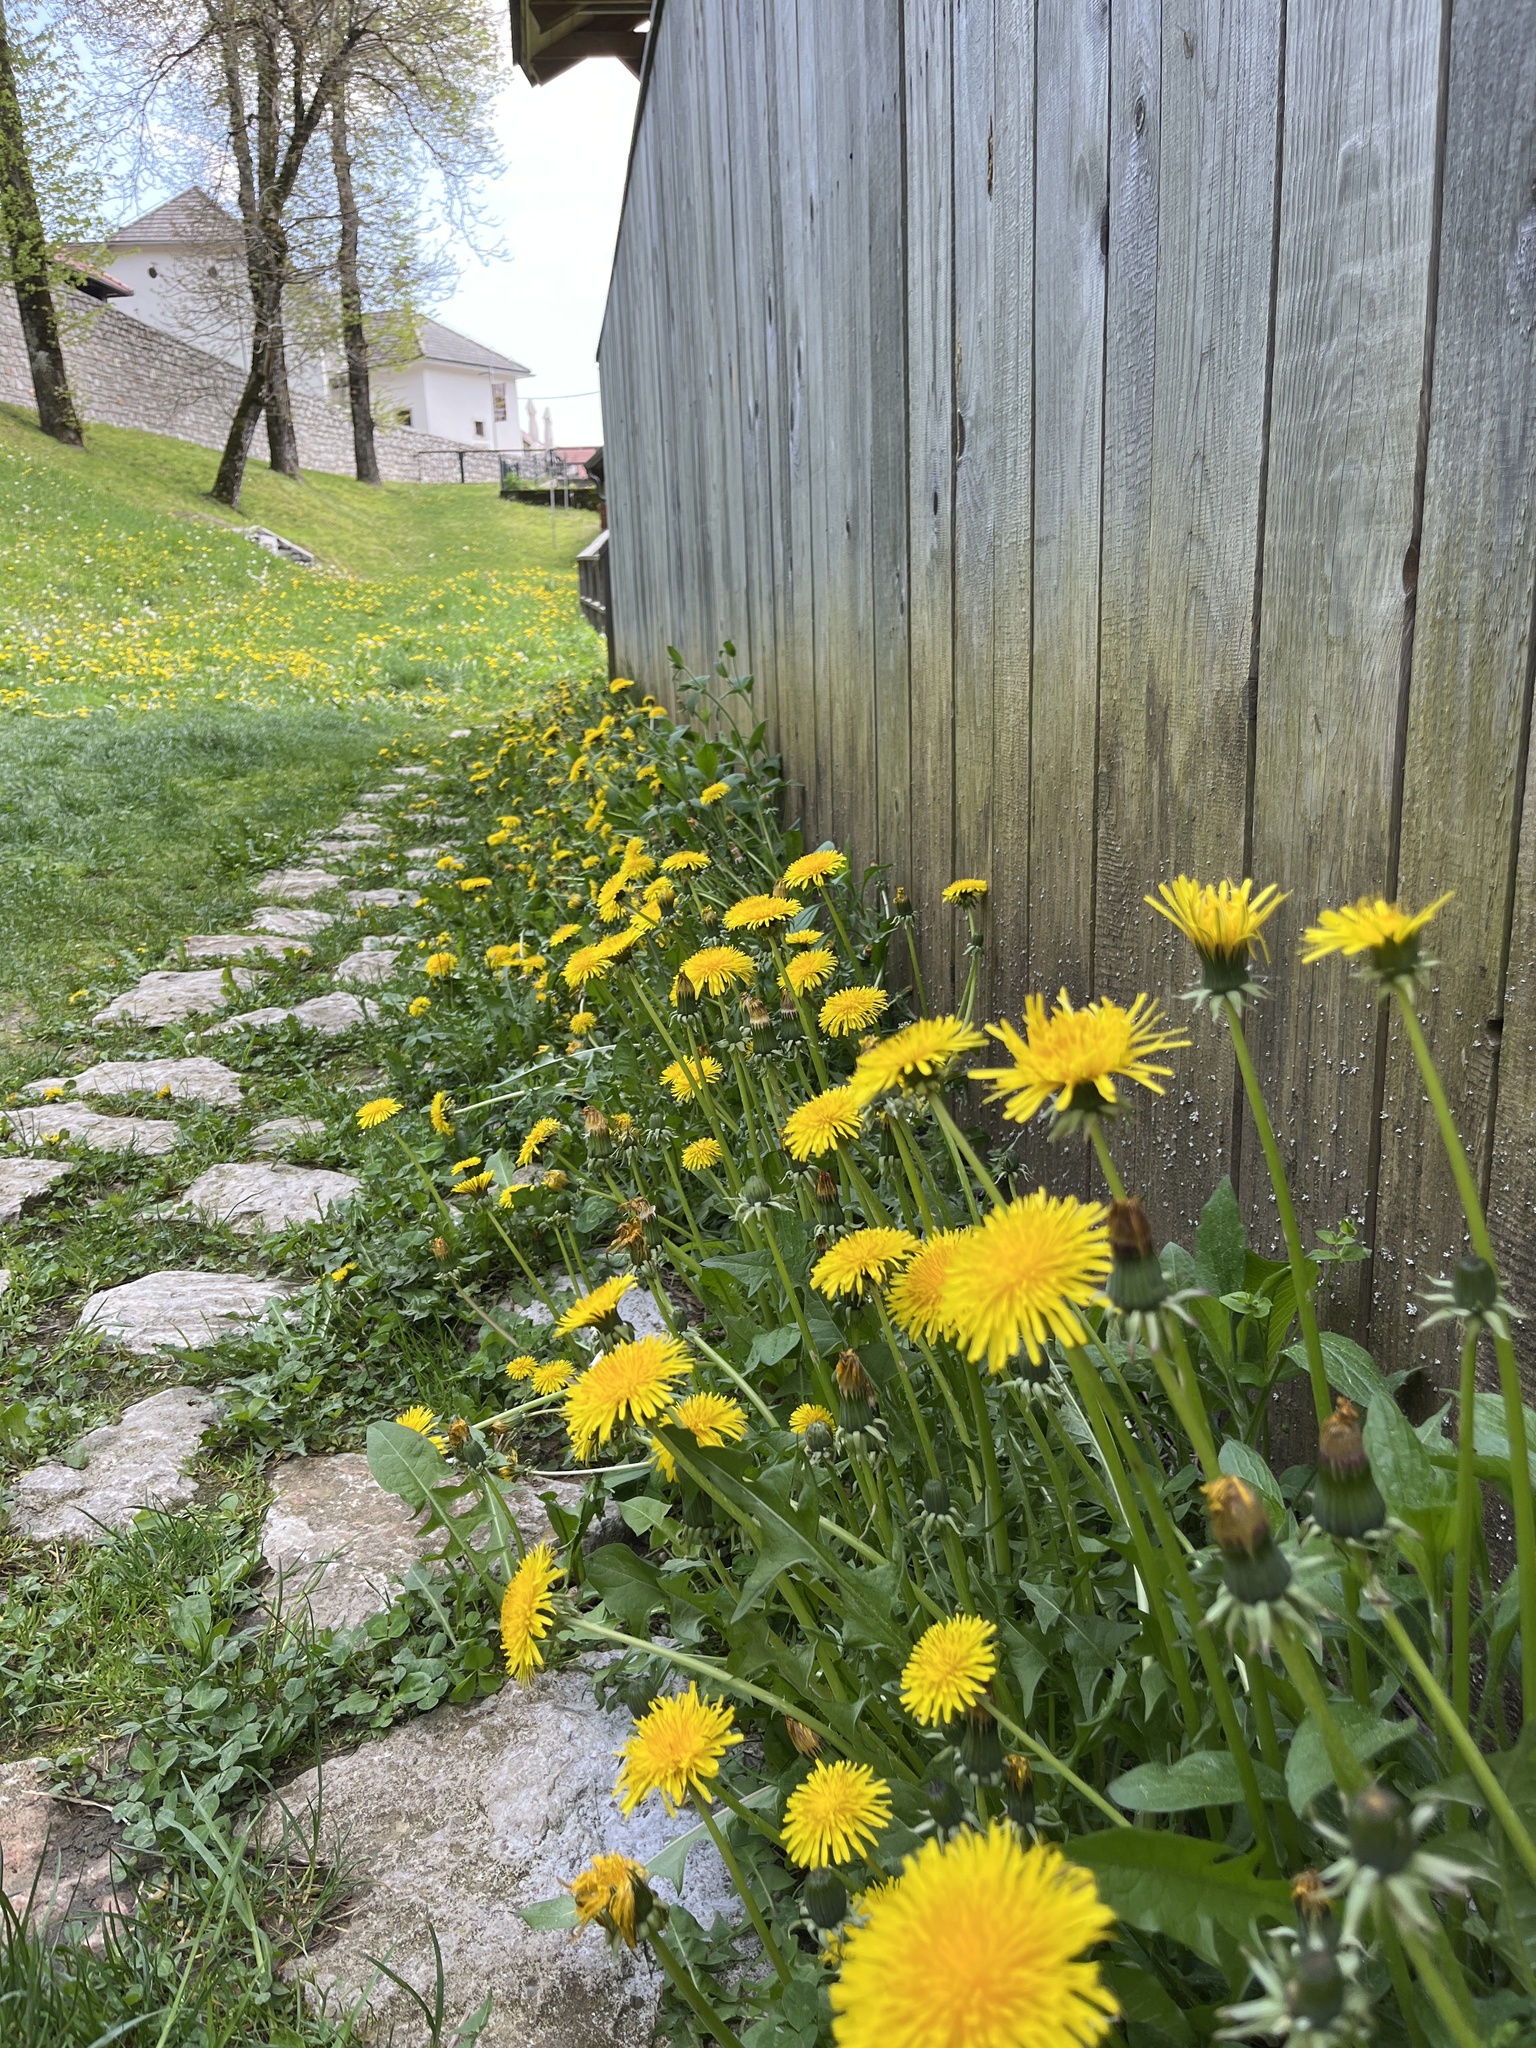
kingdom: Plantae
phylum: Tracheophyta
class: Magnoliopsida
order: Asterales
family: Asteraceae
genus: Taraxacum
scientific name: Taraxacum officinale
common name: Common dandelion
